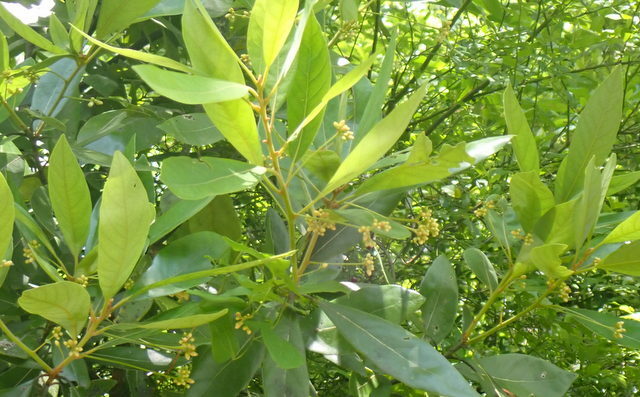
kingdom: Plantae
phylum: Tracheophyta
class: Magnoliopsida
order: Laurales
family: Lauraceae
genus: Persea
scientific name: Persea palustris
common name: Swampbay
